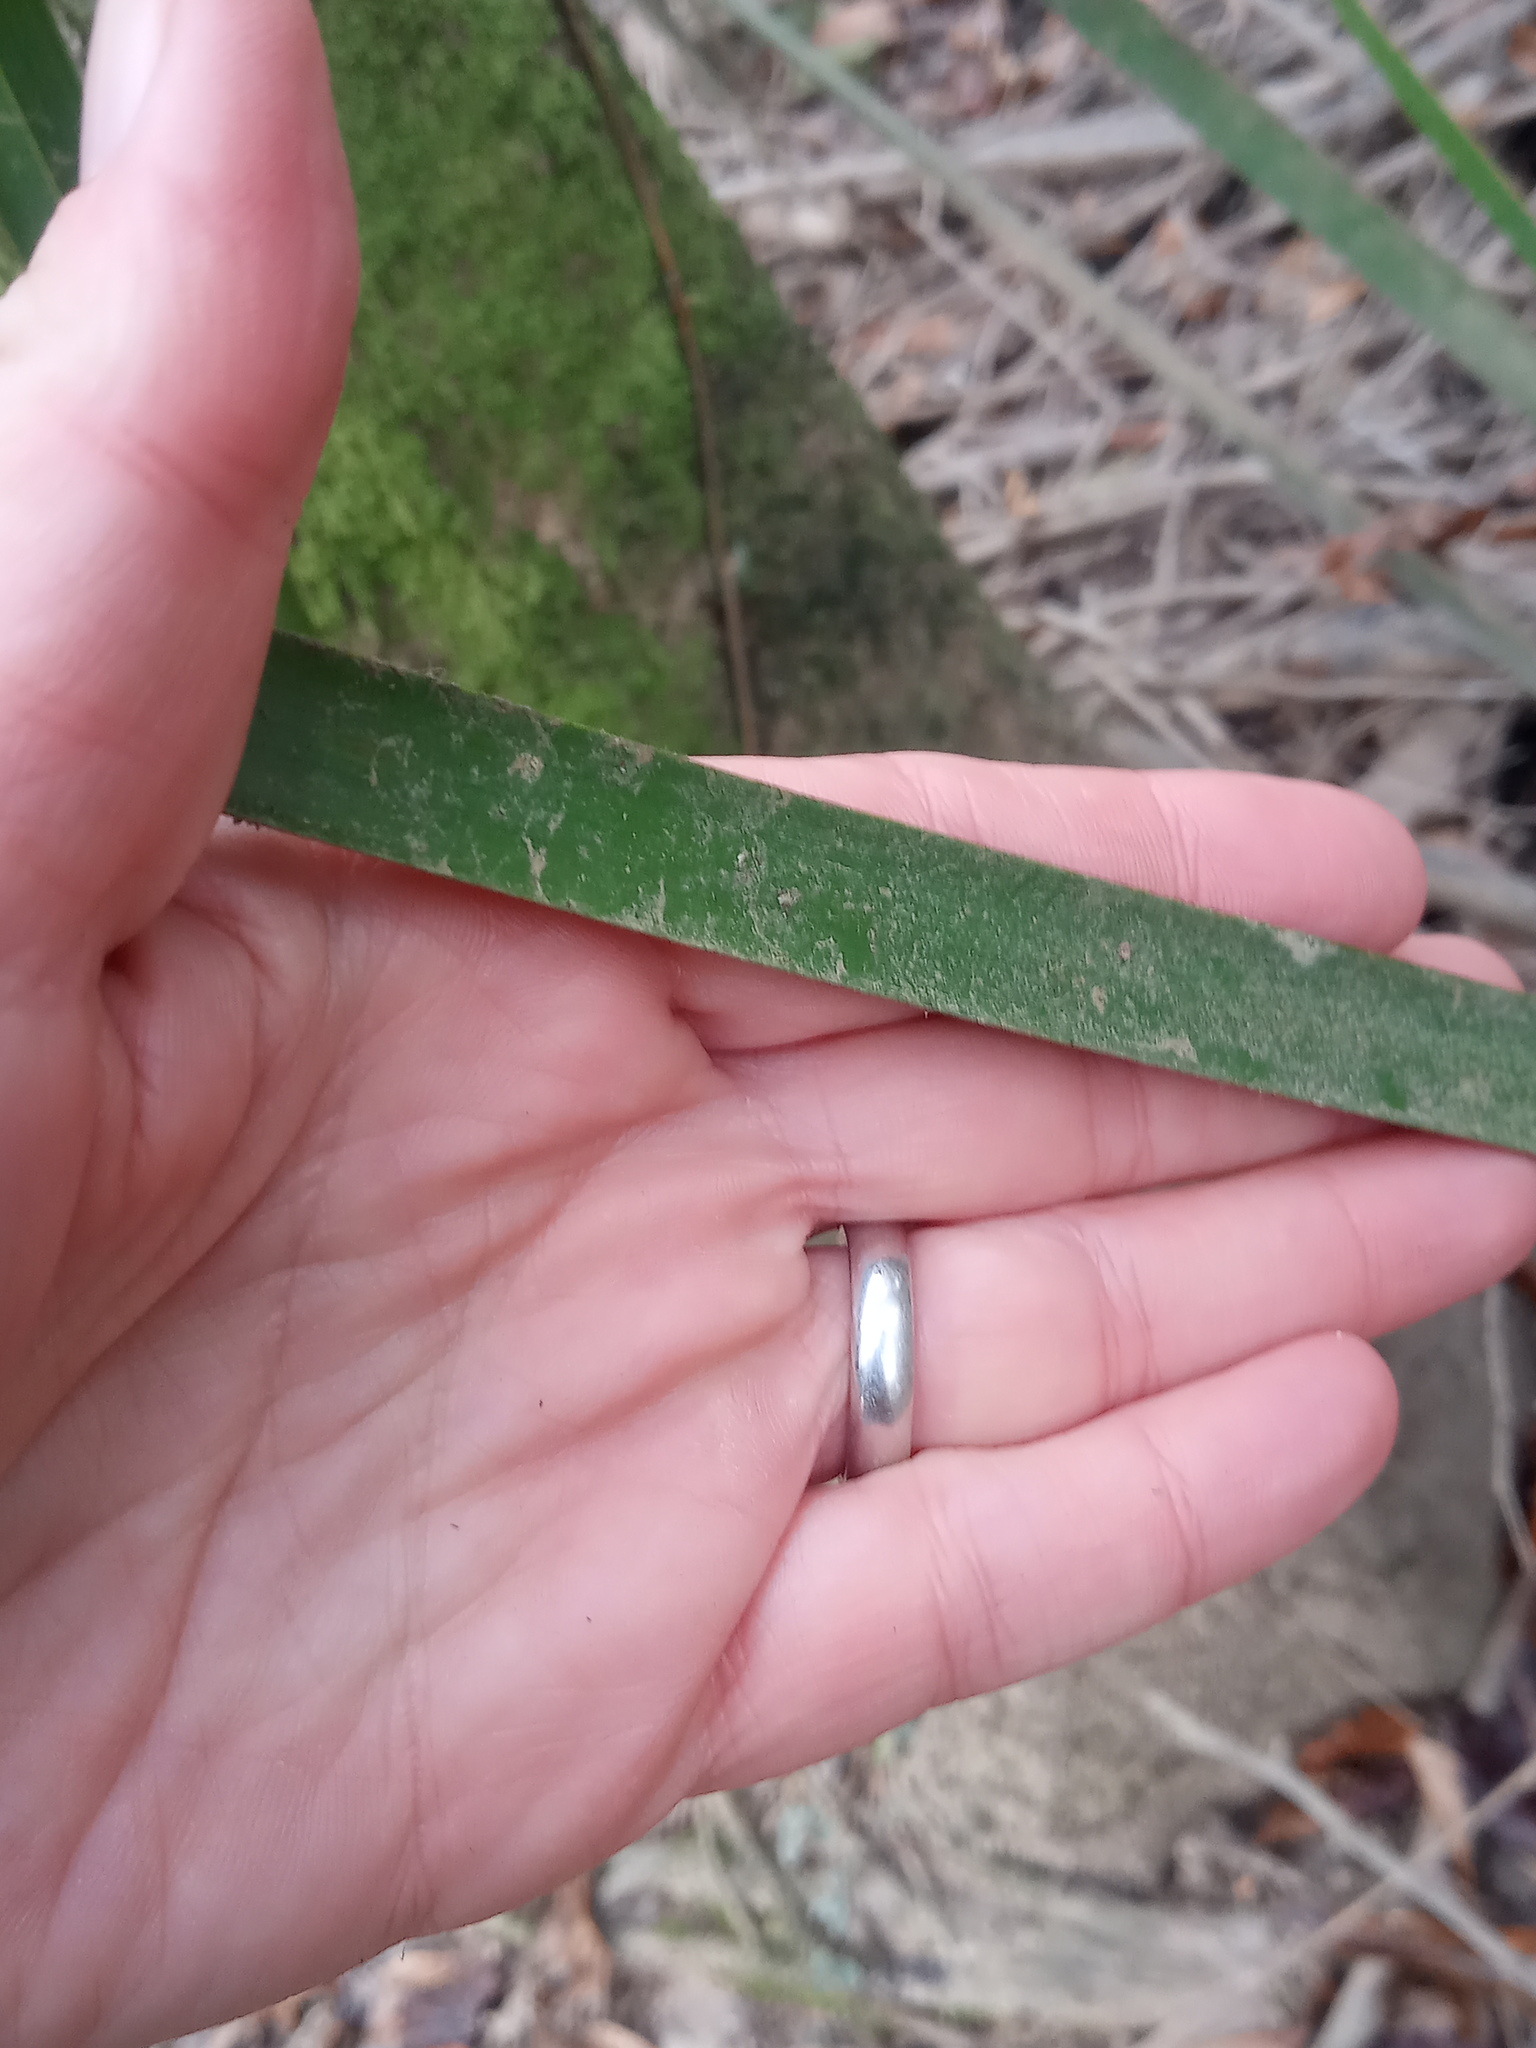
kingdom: Plantae
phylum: Tracheophyta
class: Liliopsida
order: Arecales
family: Arecaceae
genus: Sabal
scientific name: Sabal minor
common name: Dwarf palmetto
